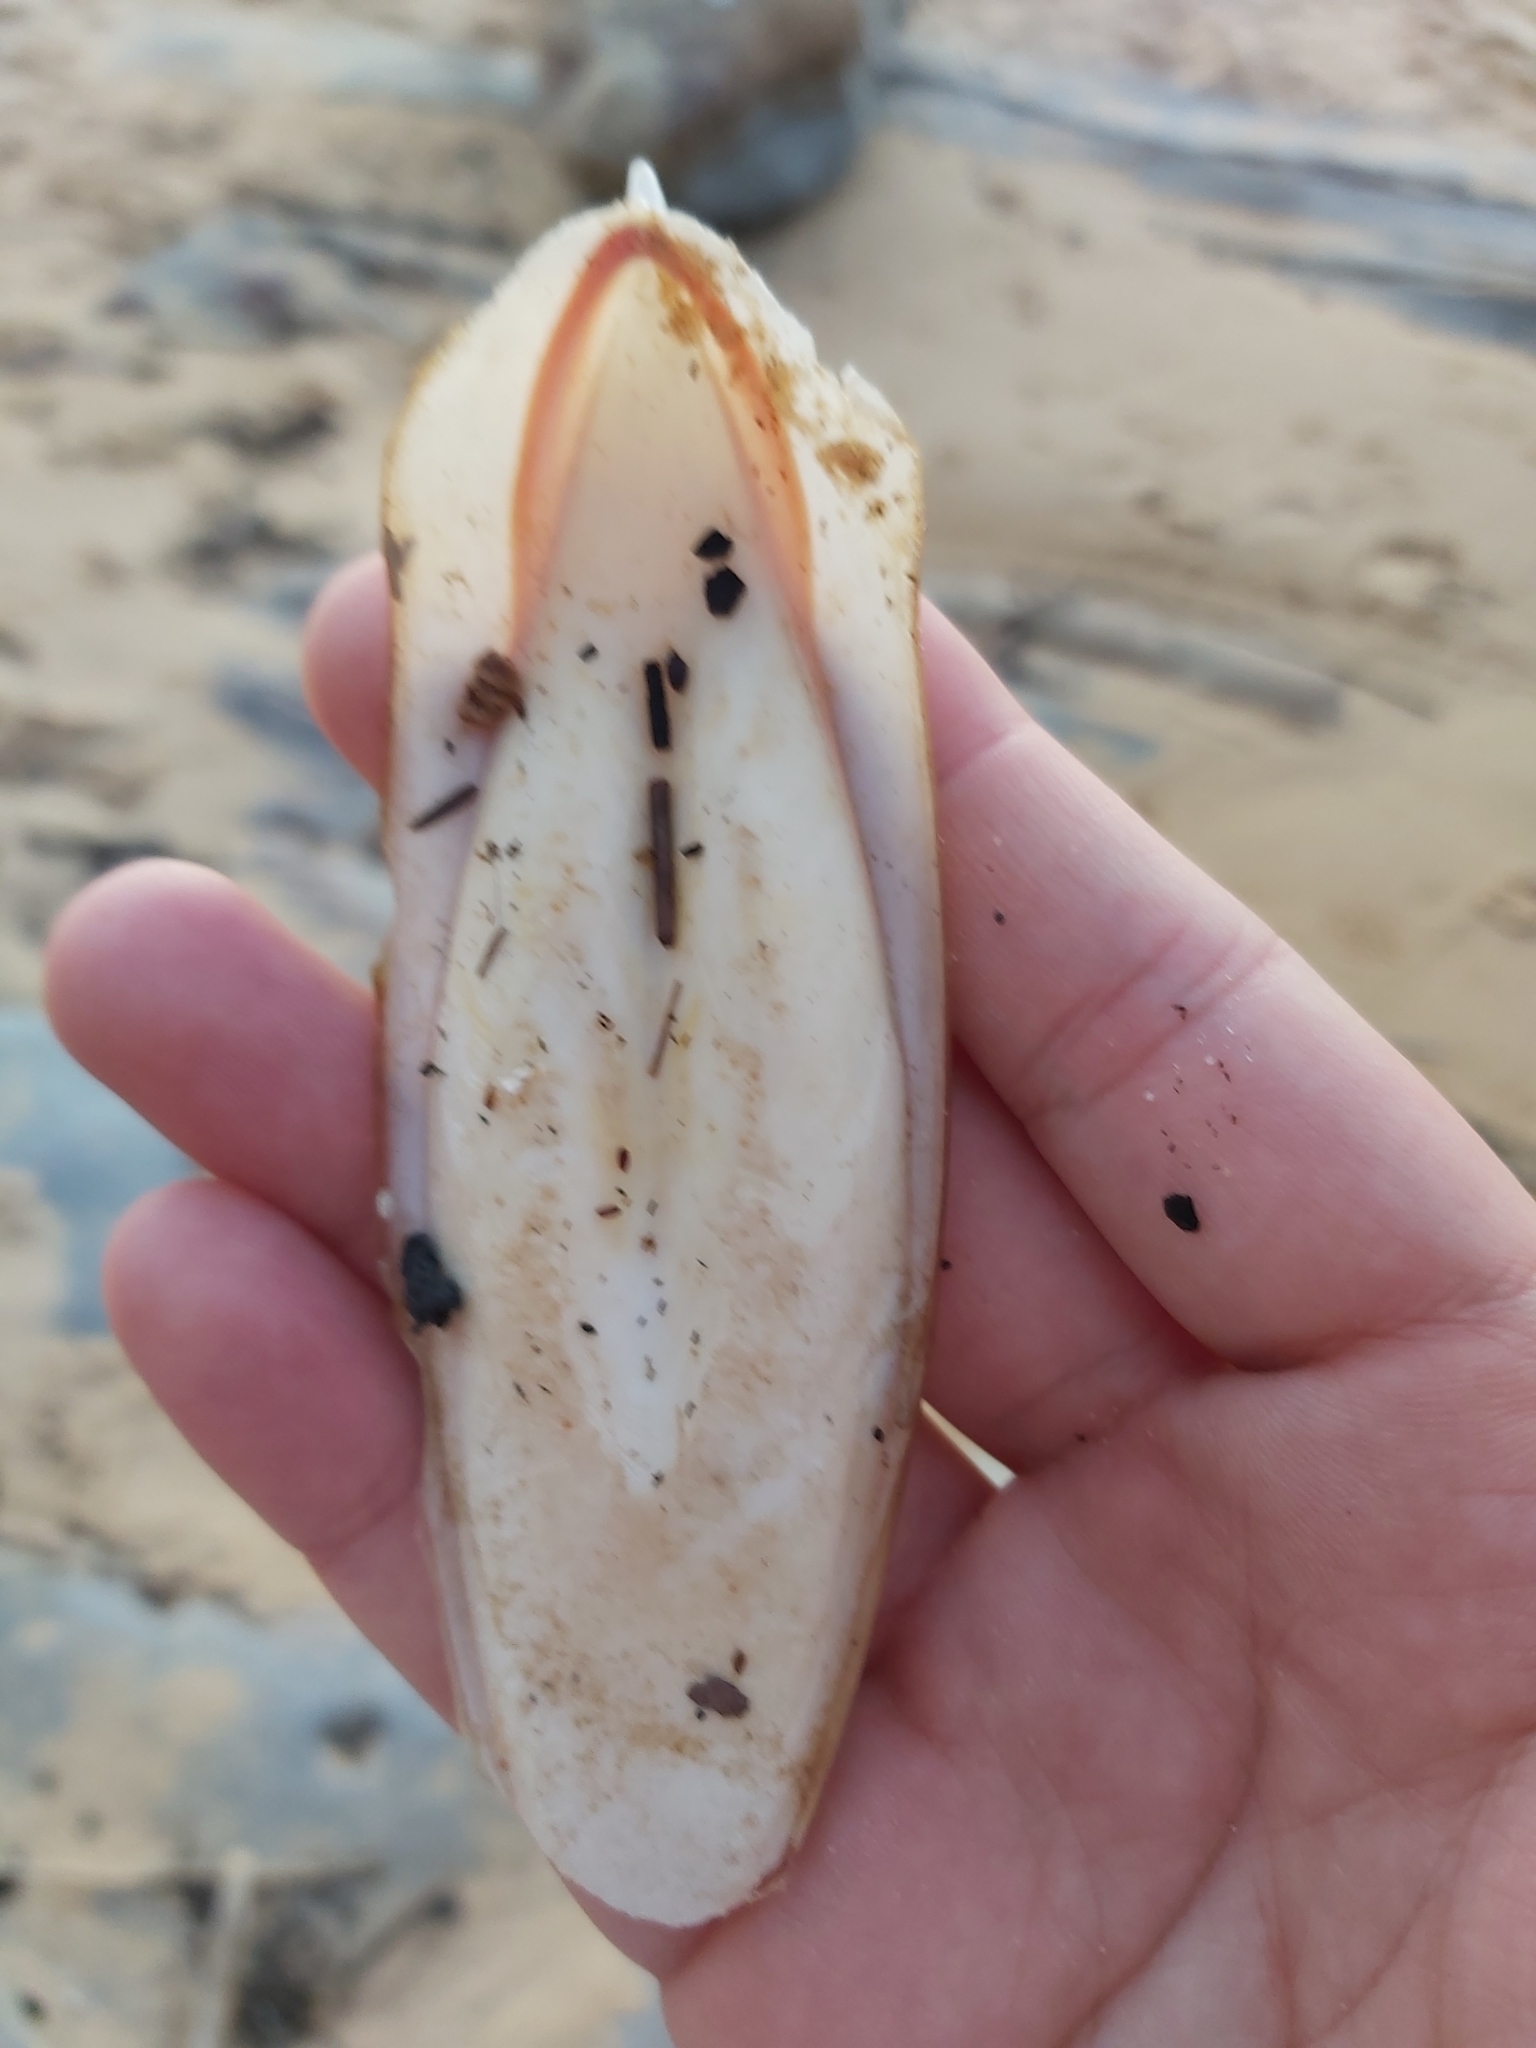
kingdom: Animalia
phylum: Mollusca
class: Cephalopoda
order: Sepiida
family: Sepiidae
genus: Ascarosepion
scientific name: Ascarosepion rozella
